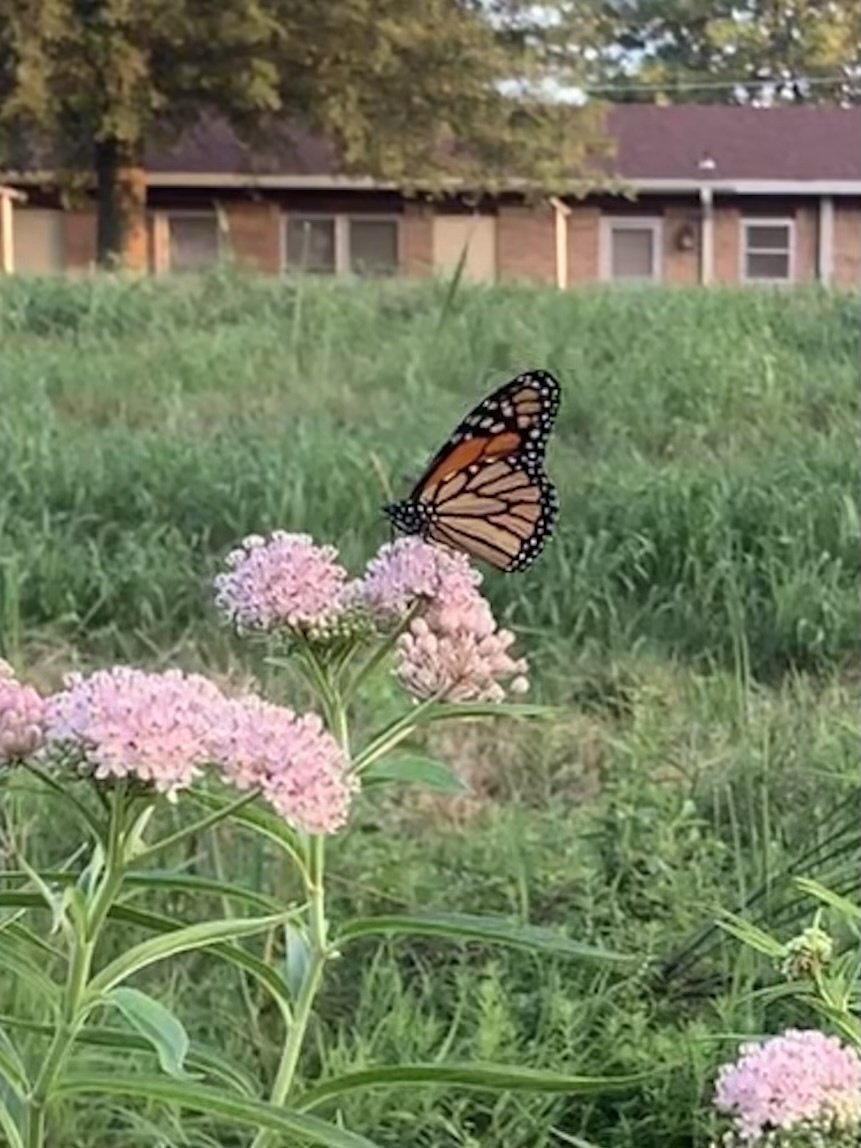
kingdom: Animalia
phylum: Arthropoda
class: Insecta
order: Lepidoptera
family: Nymphalidae
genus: Danaus
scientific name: Danaus plexippus
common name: Monarch
